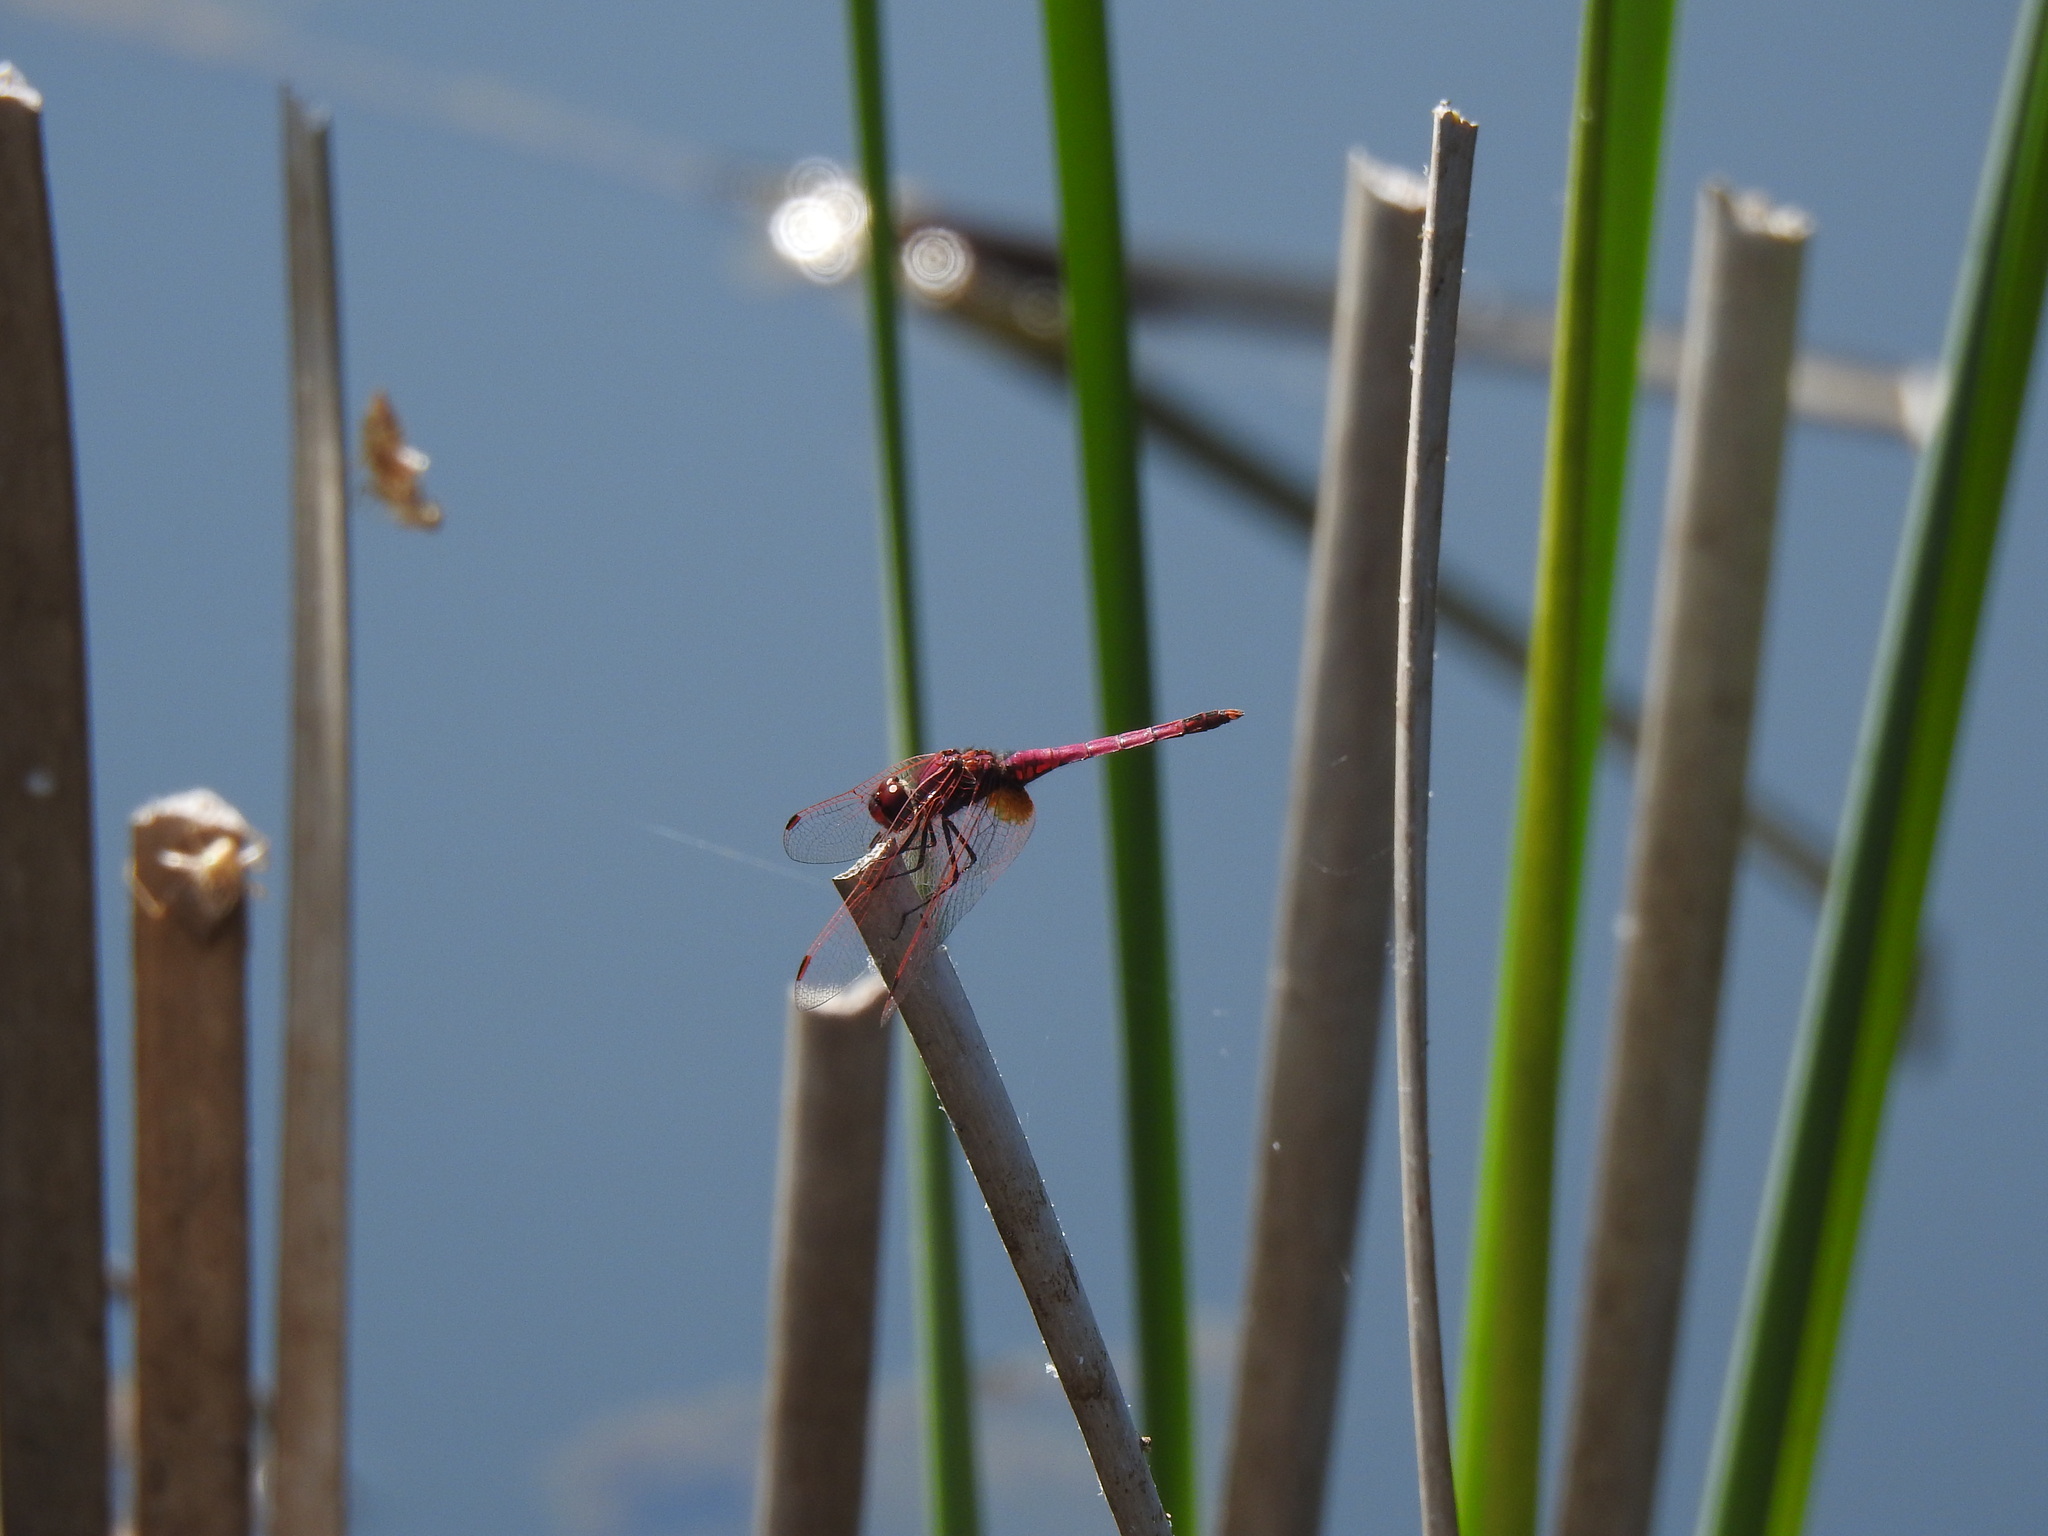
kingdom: Animalia
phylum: Arthropoda
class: Insecta
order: Odonata
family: Libellulidae
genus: Trithemis
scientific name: Trithemis annulata
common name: Violet dropwing
